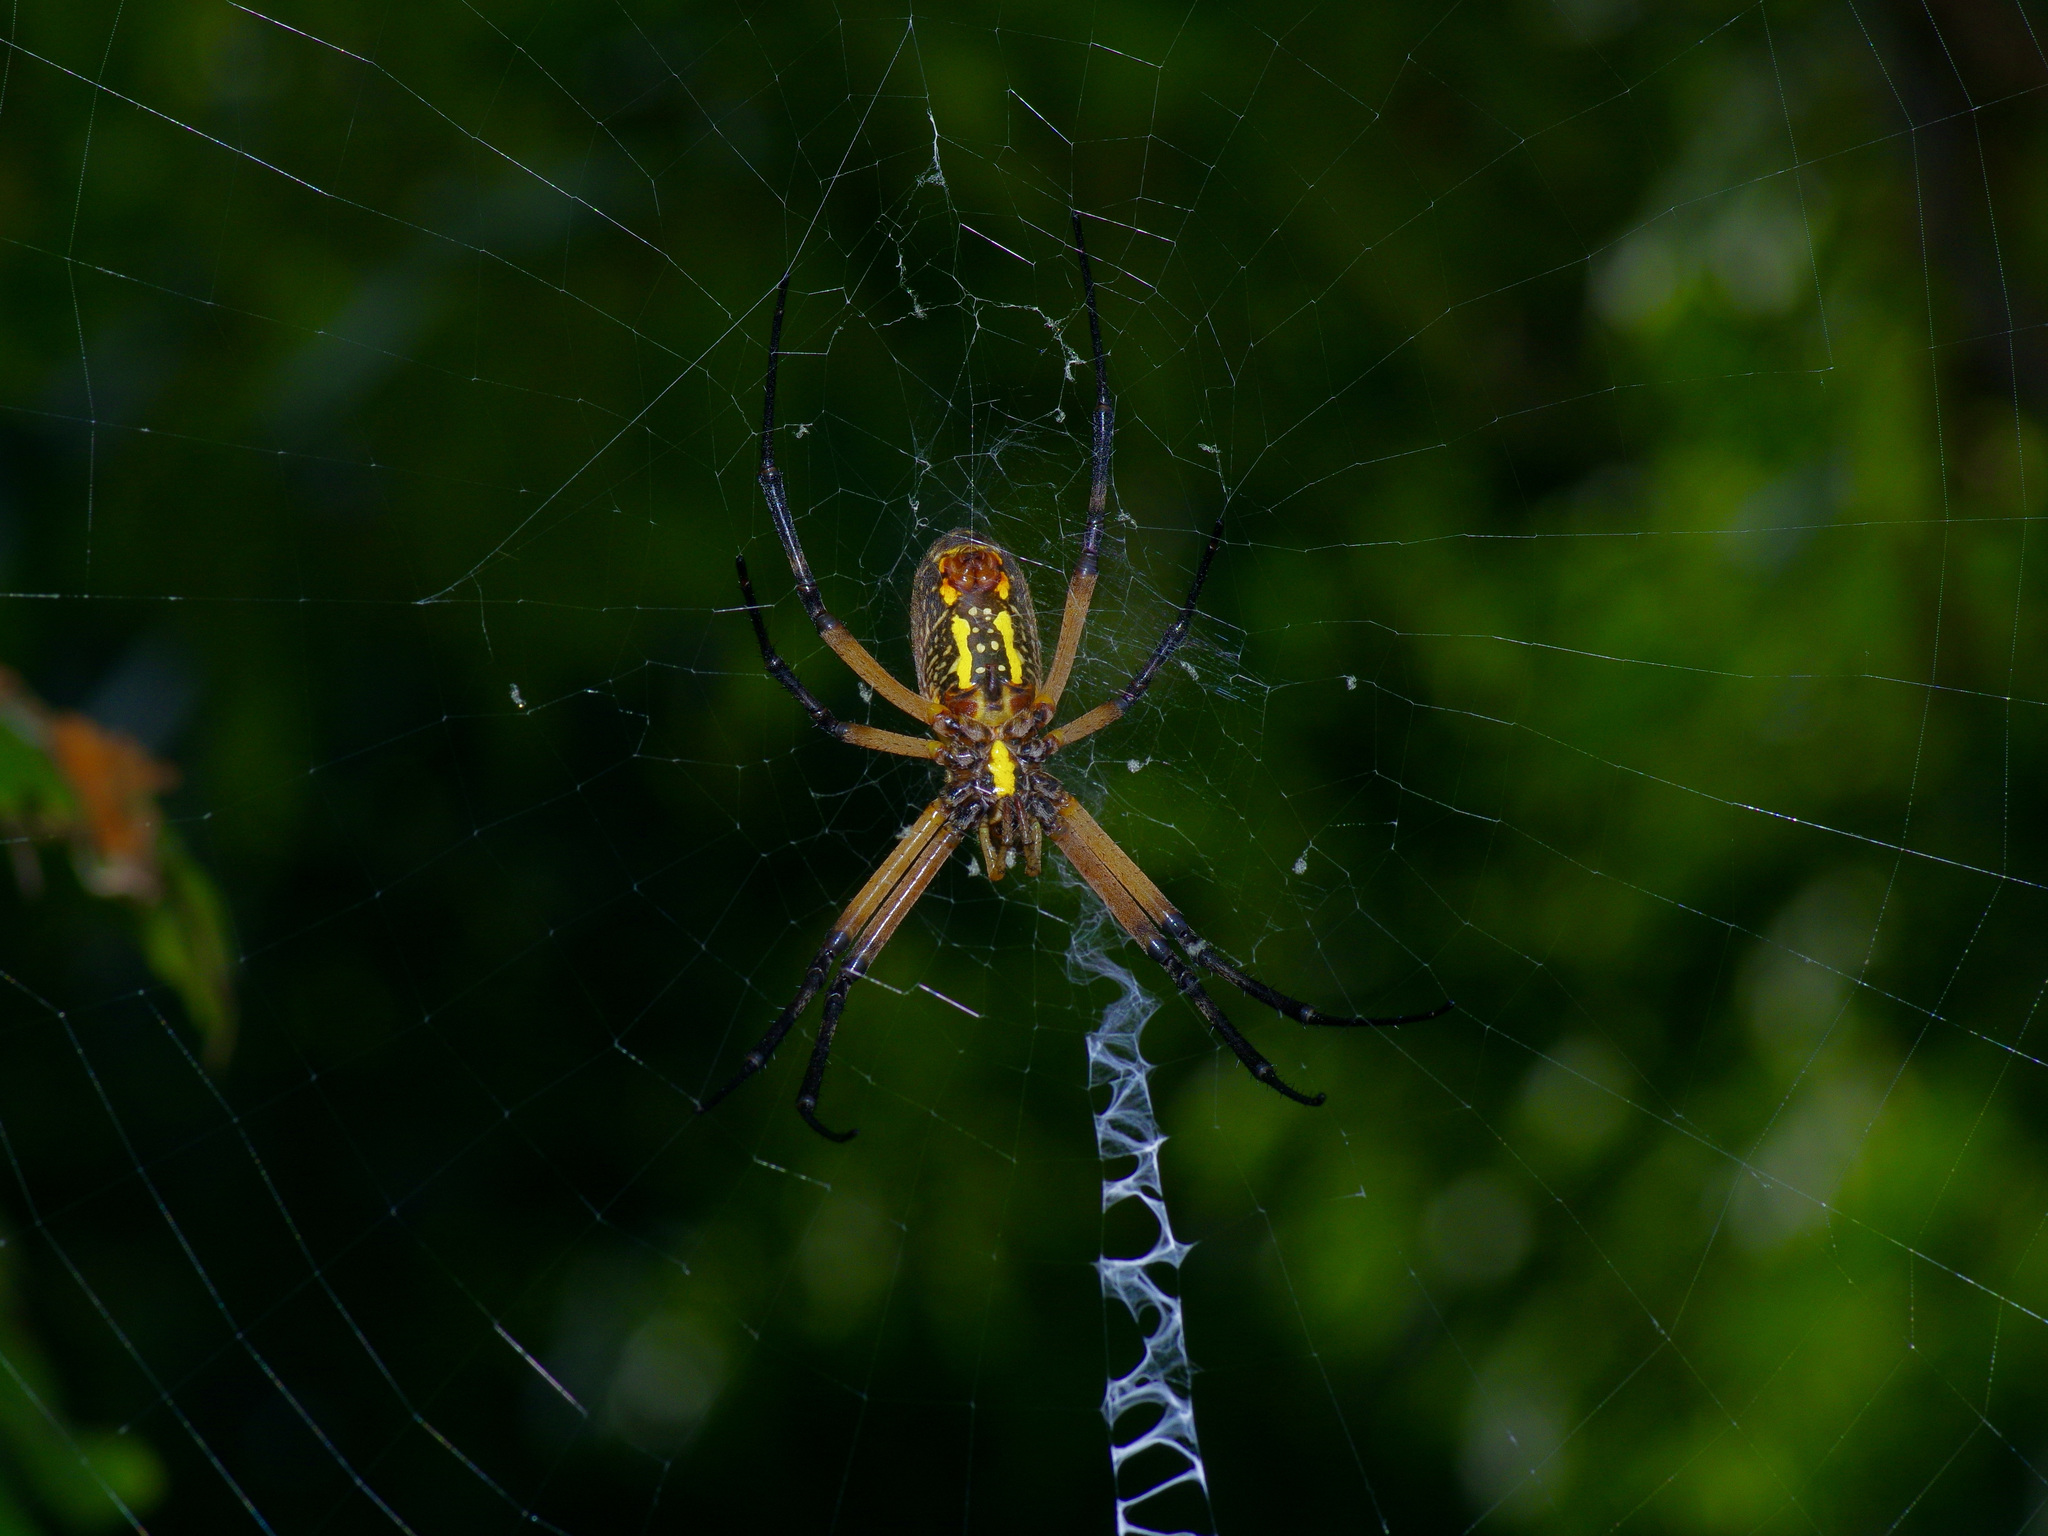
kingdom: Animalia
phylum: Arthropoda
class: Arachnida
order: Araneae
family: Araneidae
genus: Argiope
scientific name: Argiope aurantia
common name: Orb weavers
